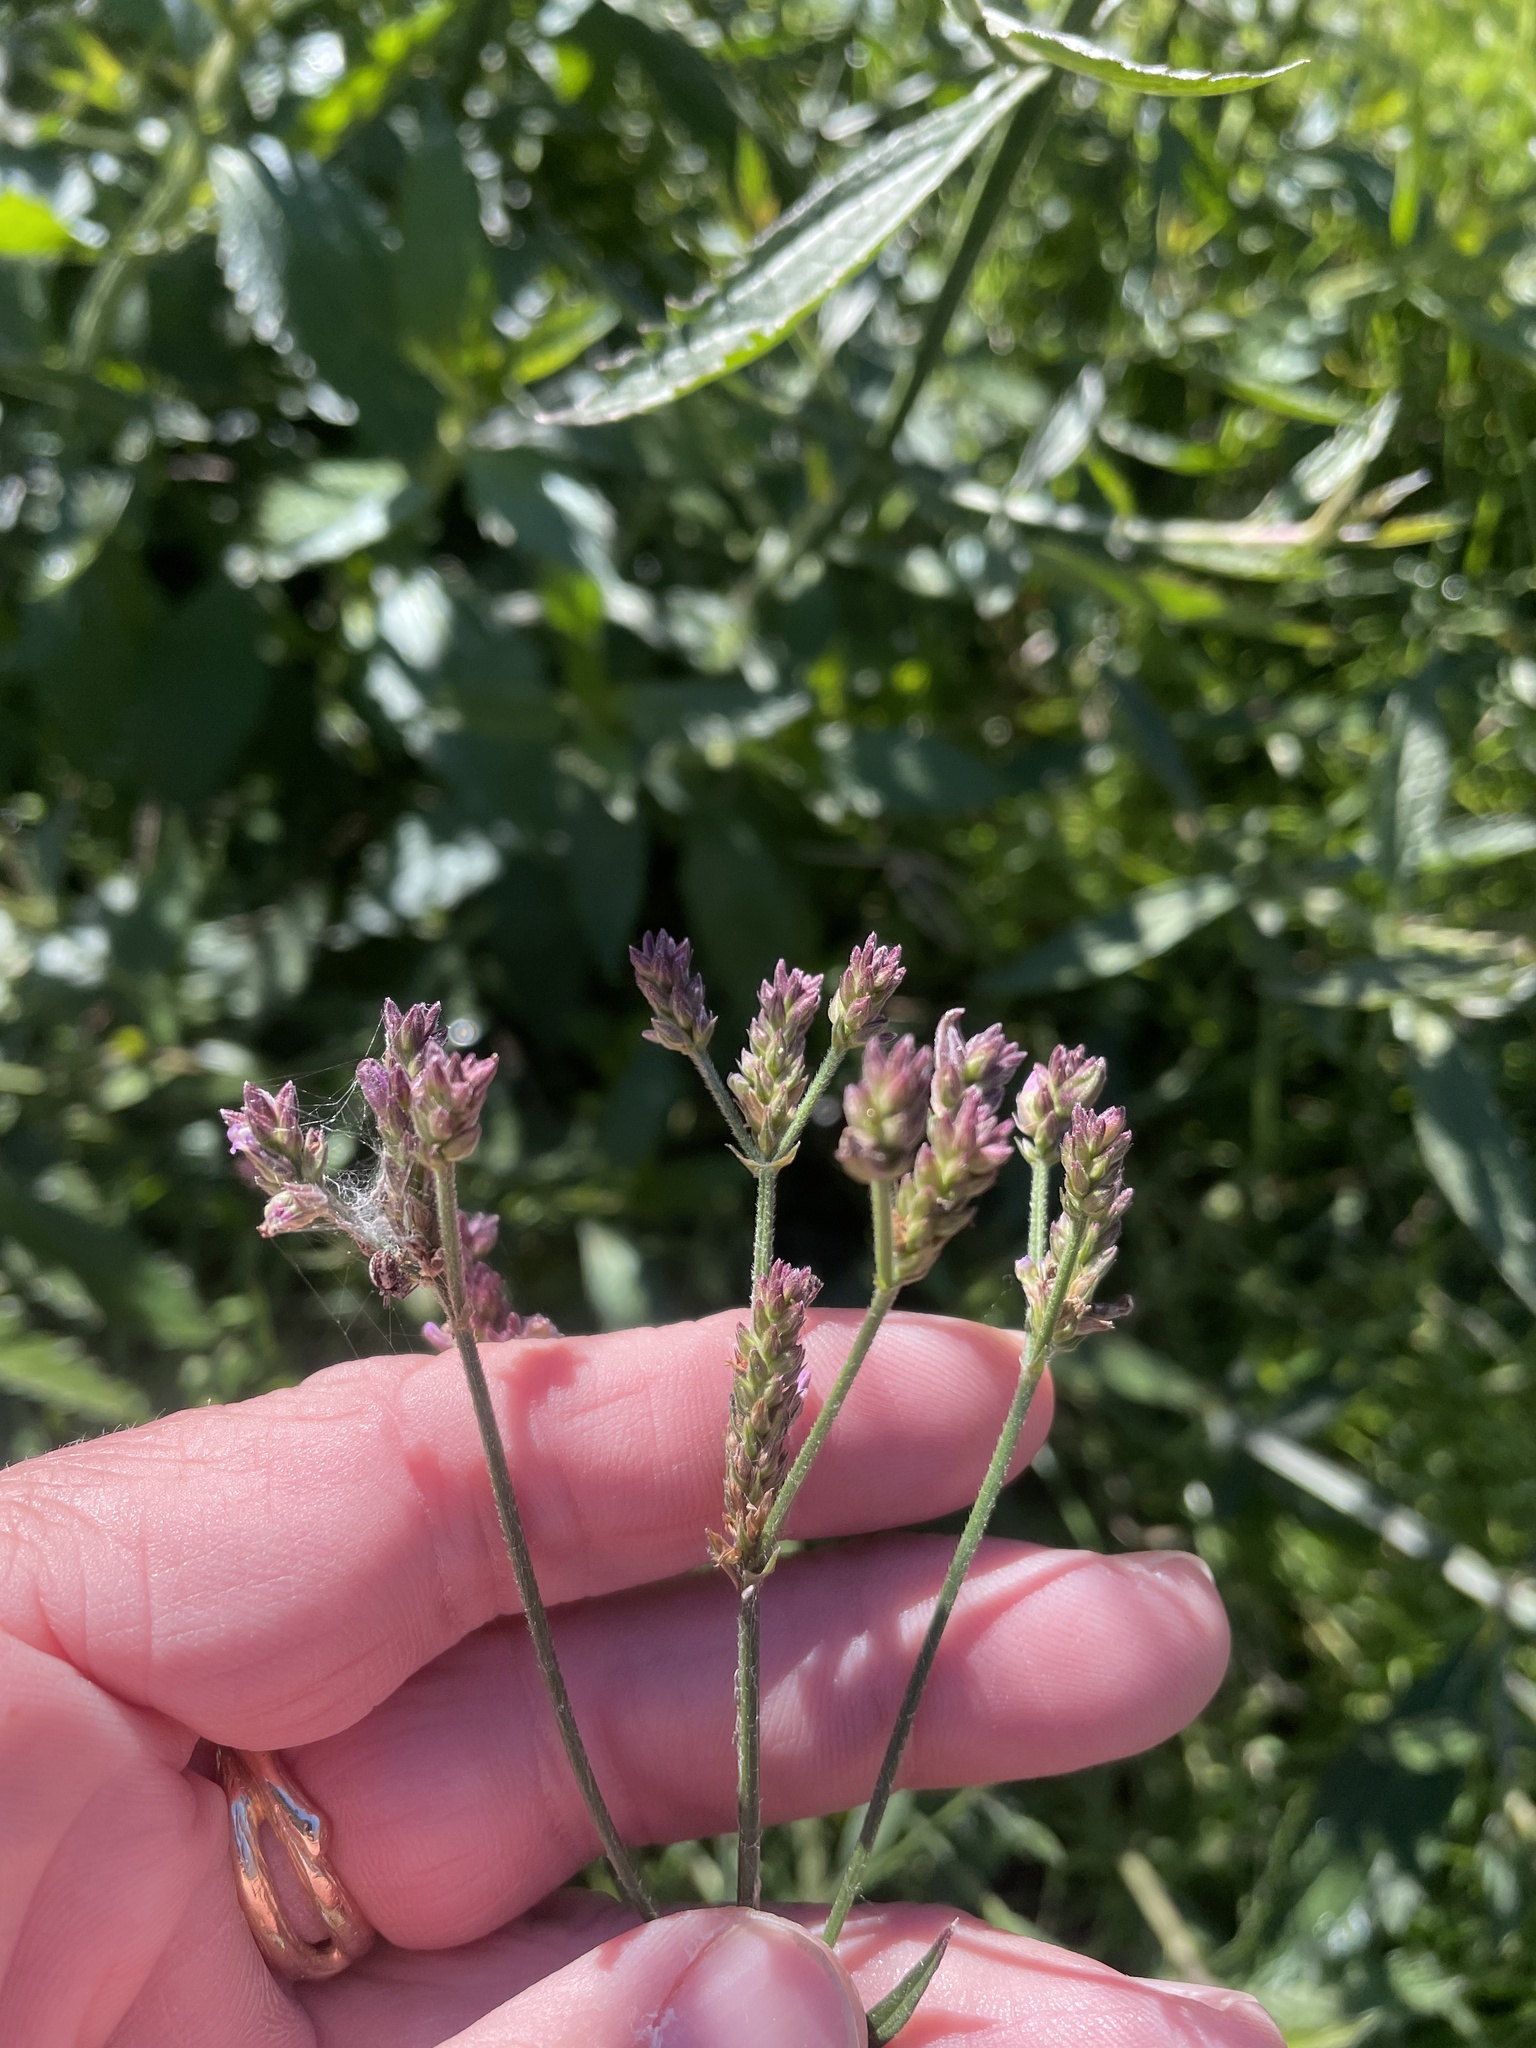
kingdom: Plantae
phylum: Tracheophyta
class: Magnoliopsida
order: Lamiales
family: Verbenaceae
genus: Verbena
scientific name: Verbena brasiliensis
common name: Brazilian vervain
